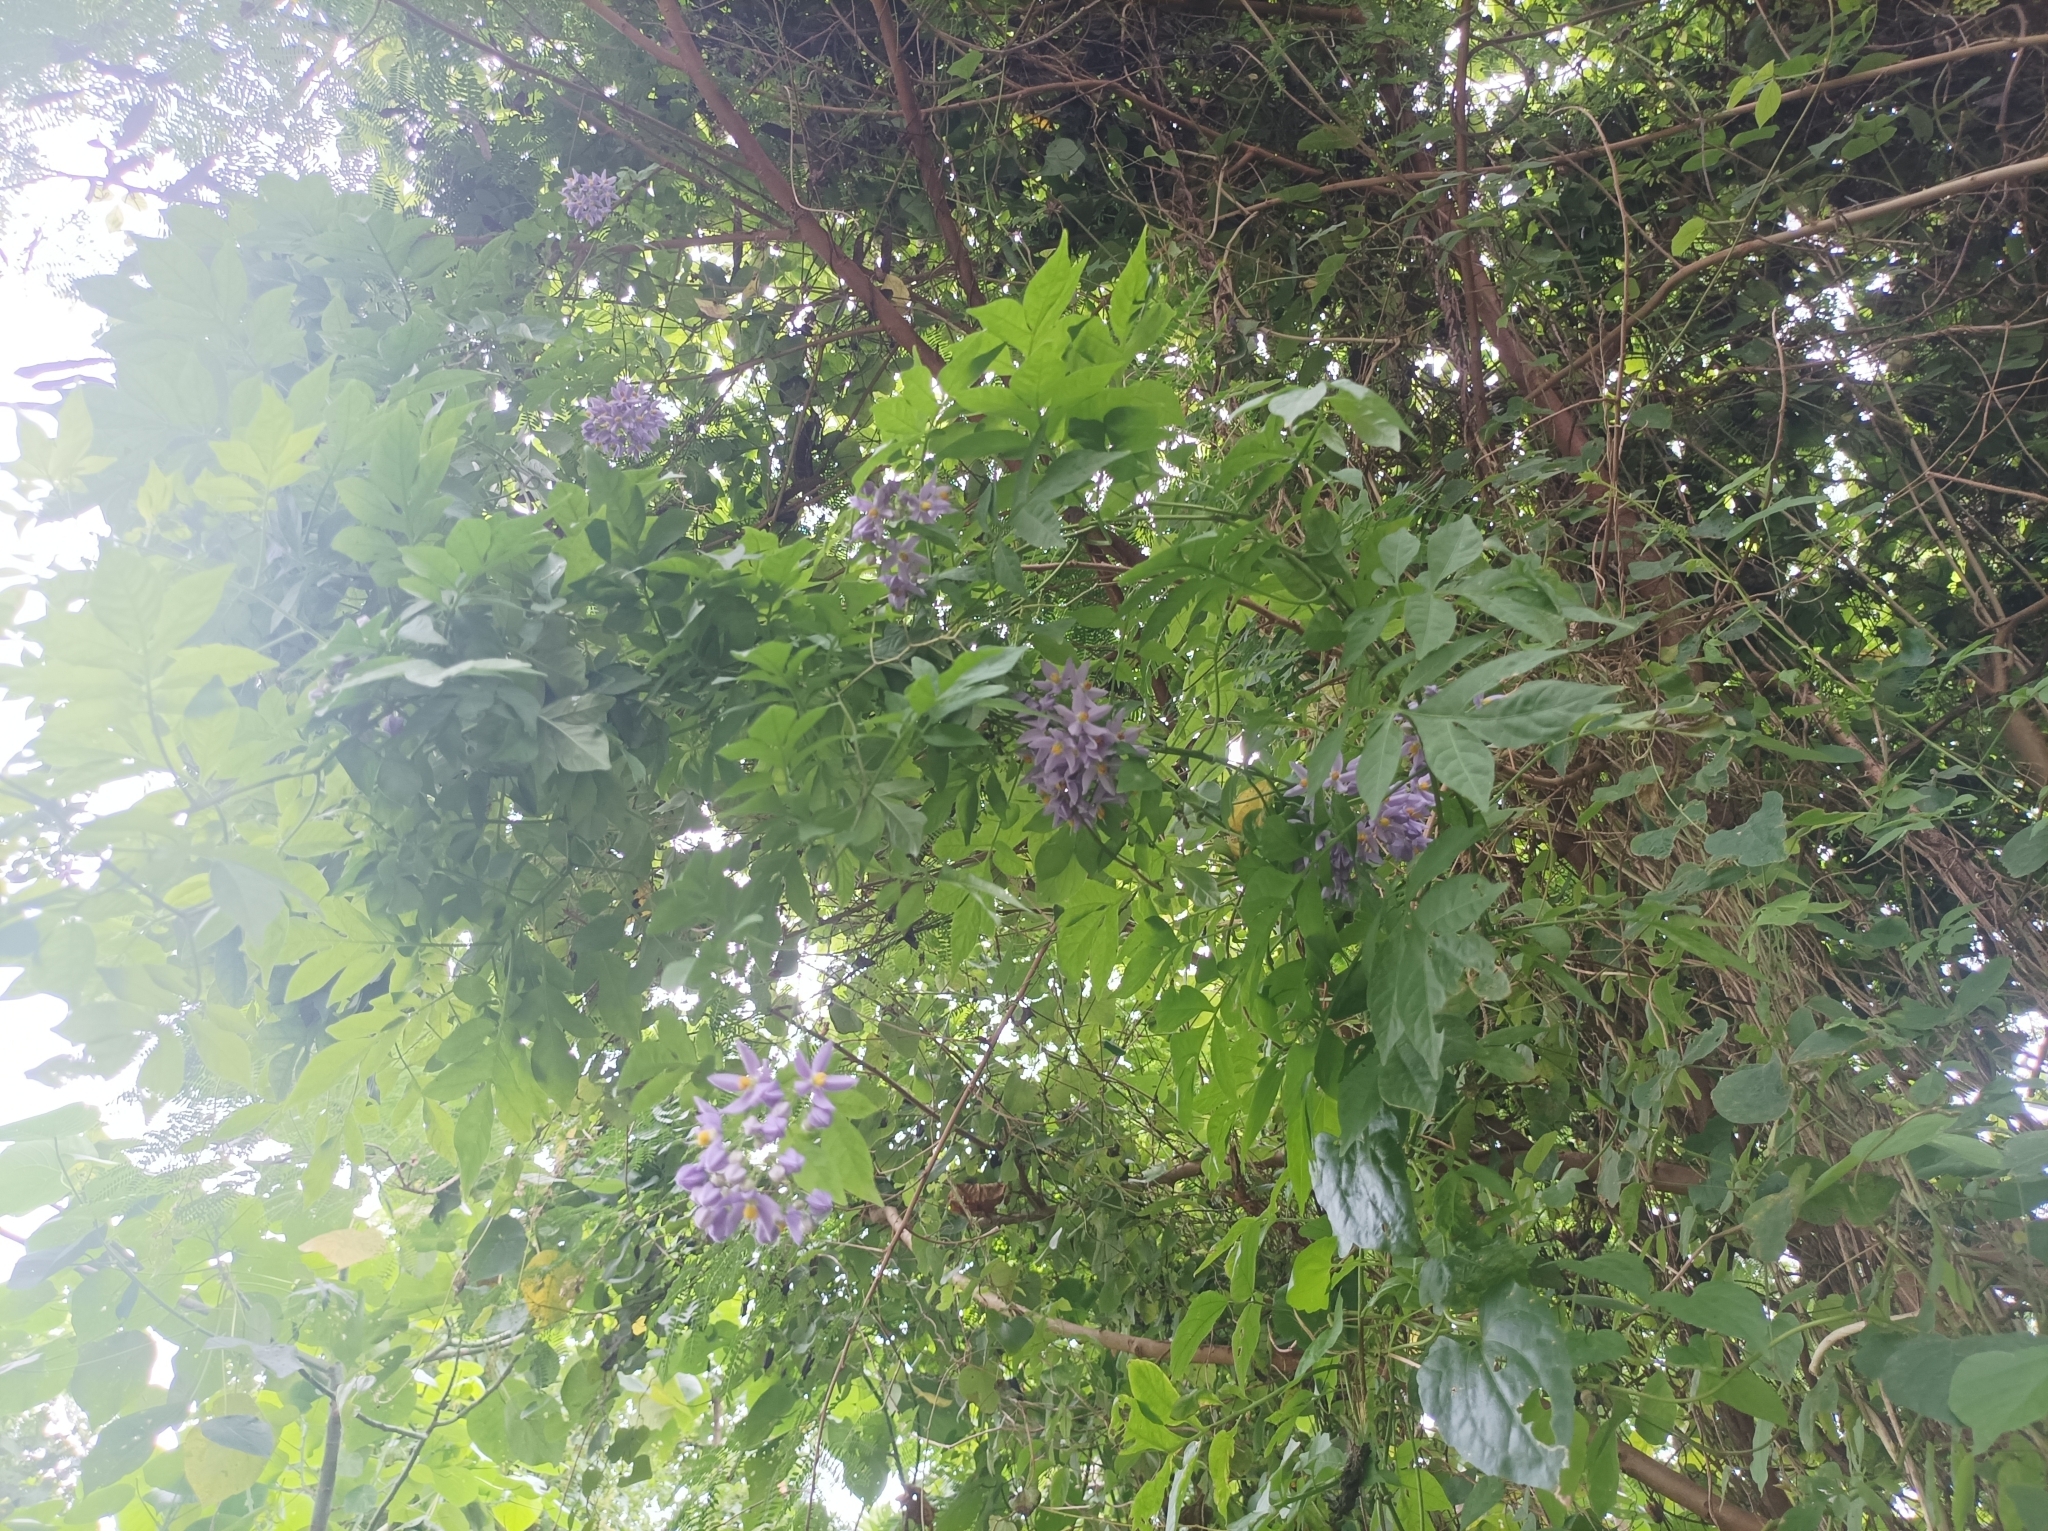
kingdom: Plantae
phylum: Tracheophyta
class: Magnoliopsida
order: Solanales
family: Solanaceae
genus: Solanum
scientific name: Solanum seaforthianum
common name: Brazilian nightshade
